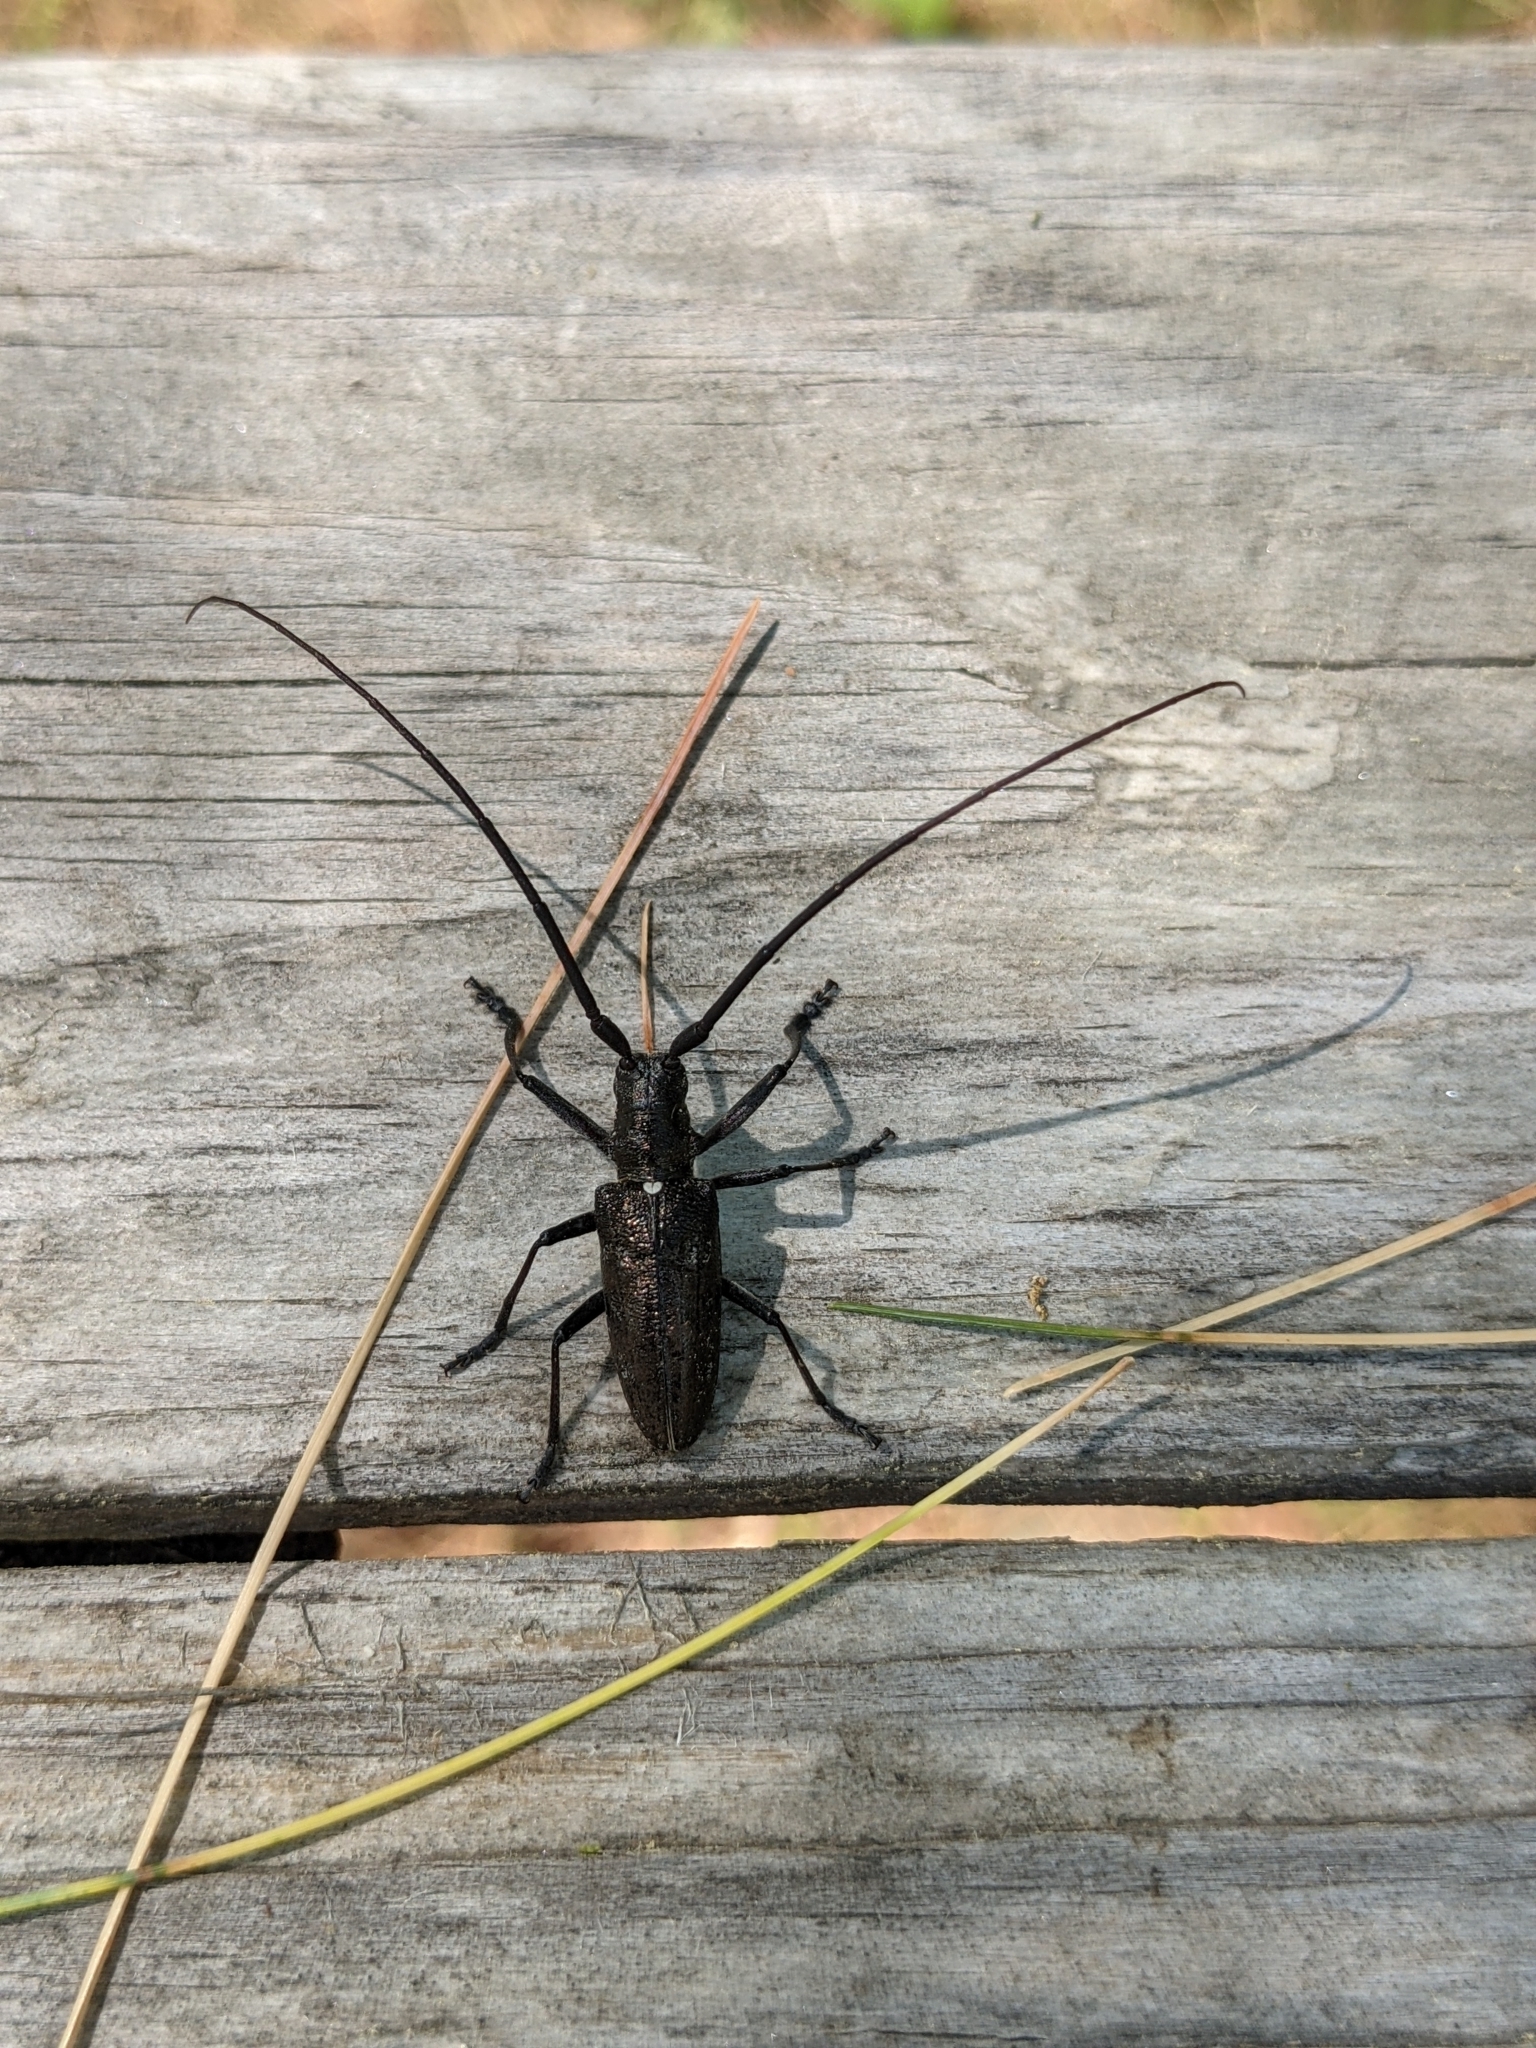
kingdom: Animalia
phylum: Arthropoda
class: Insecta
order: Coleoptera
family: Cerambycidae
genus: Monochamus
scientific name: Monochamus scutellatus
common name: White-spotted sawyer beetle
